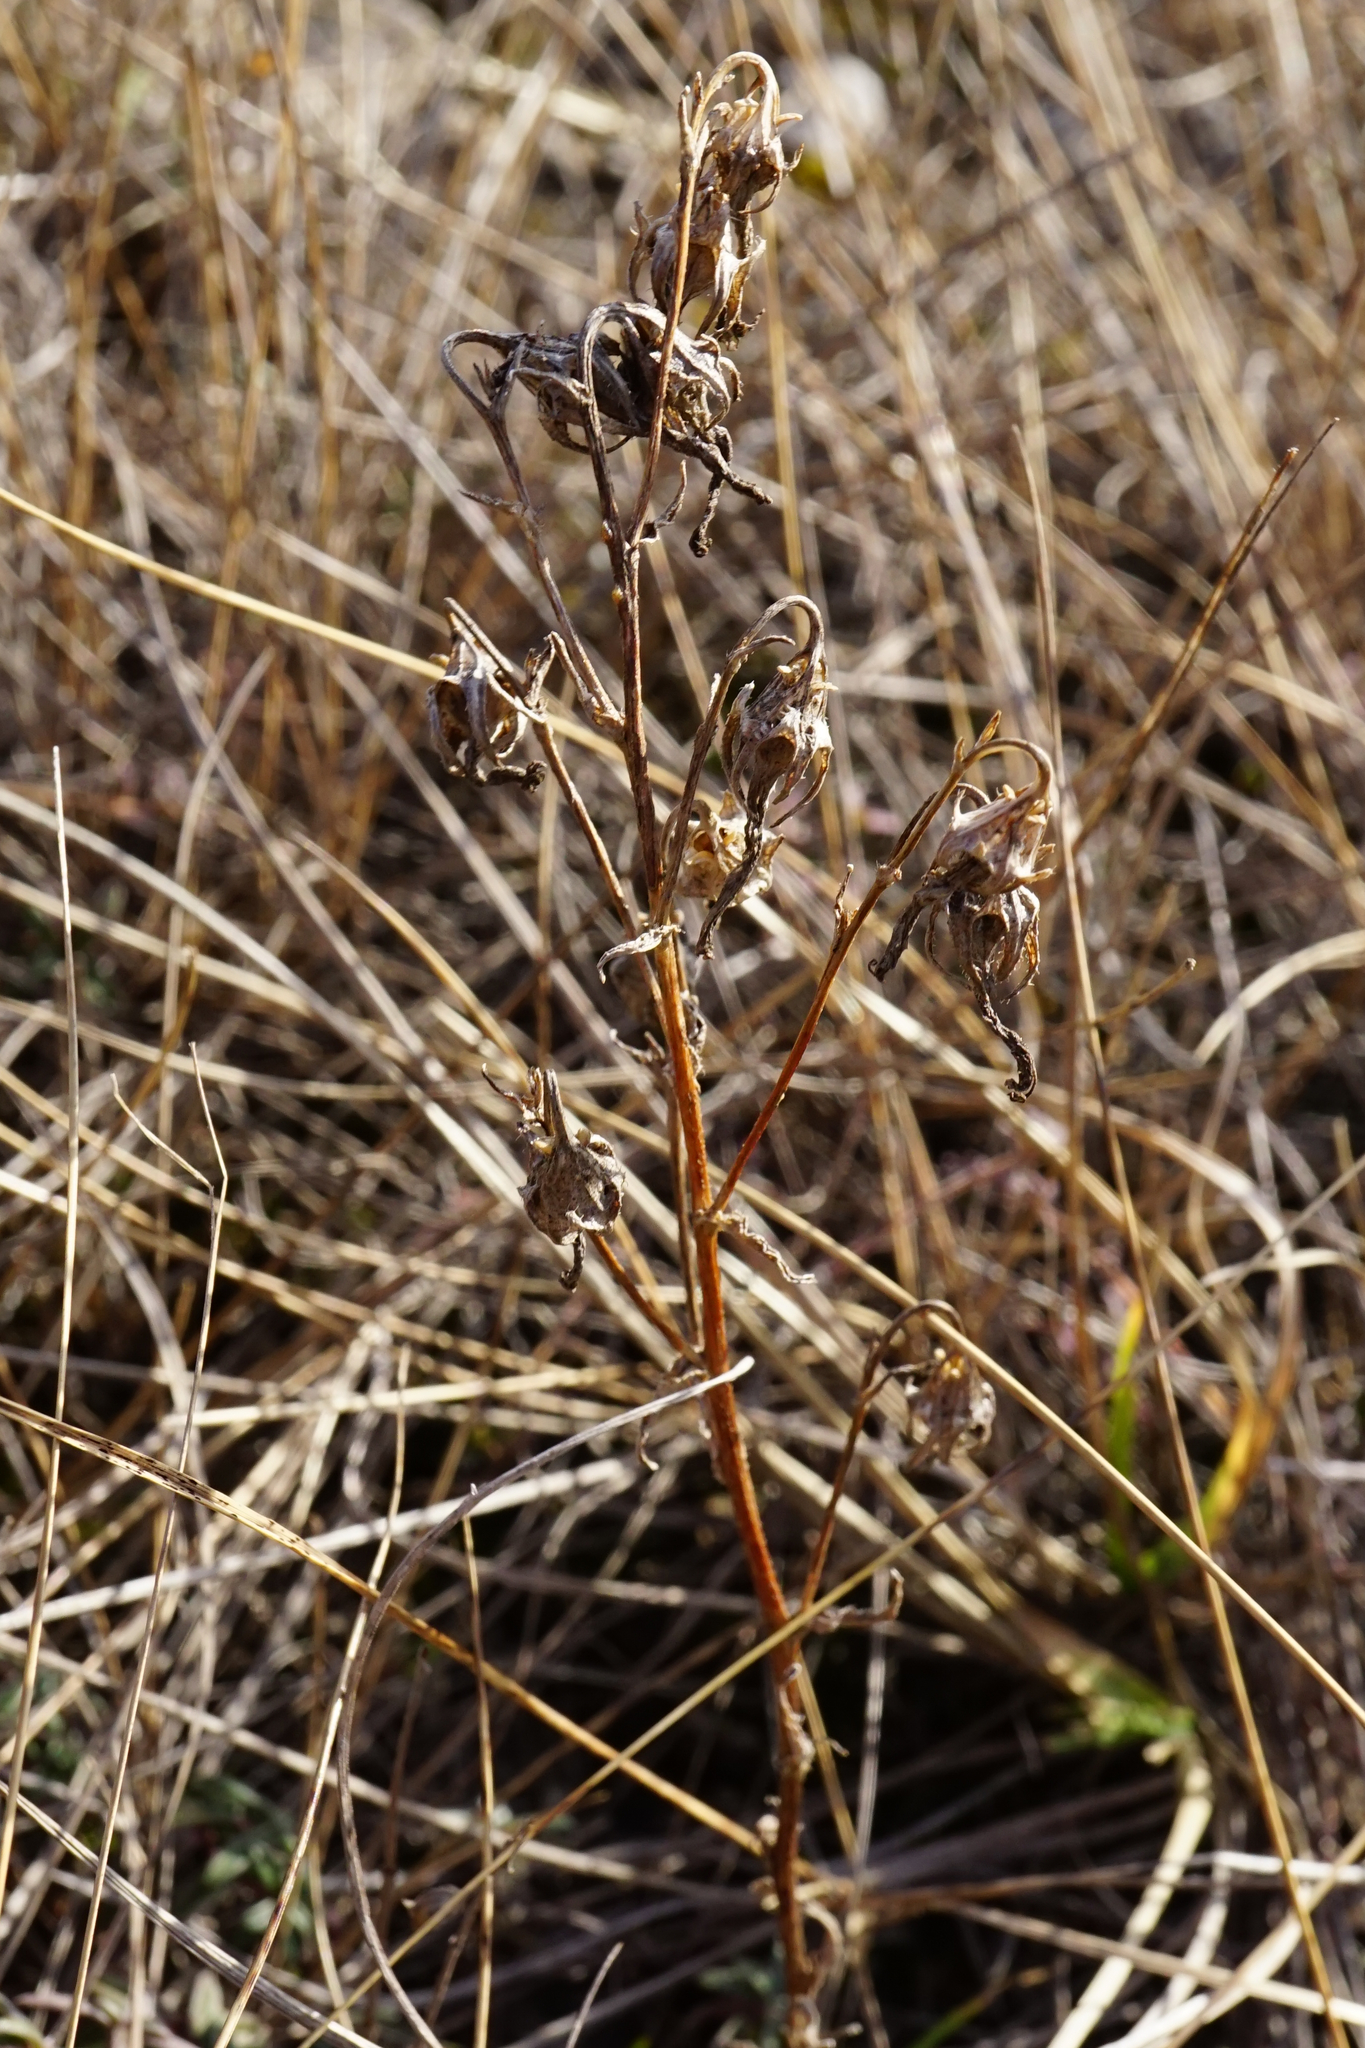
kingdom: Plantae
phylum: Tracheophyta
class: Magnoliopsida
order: Asterales
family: Campanulaceae
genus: Campanula
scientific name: Campanula sibirica
